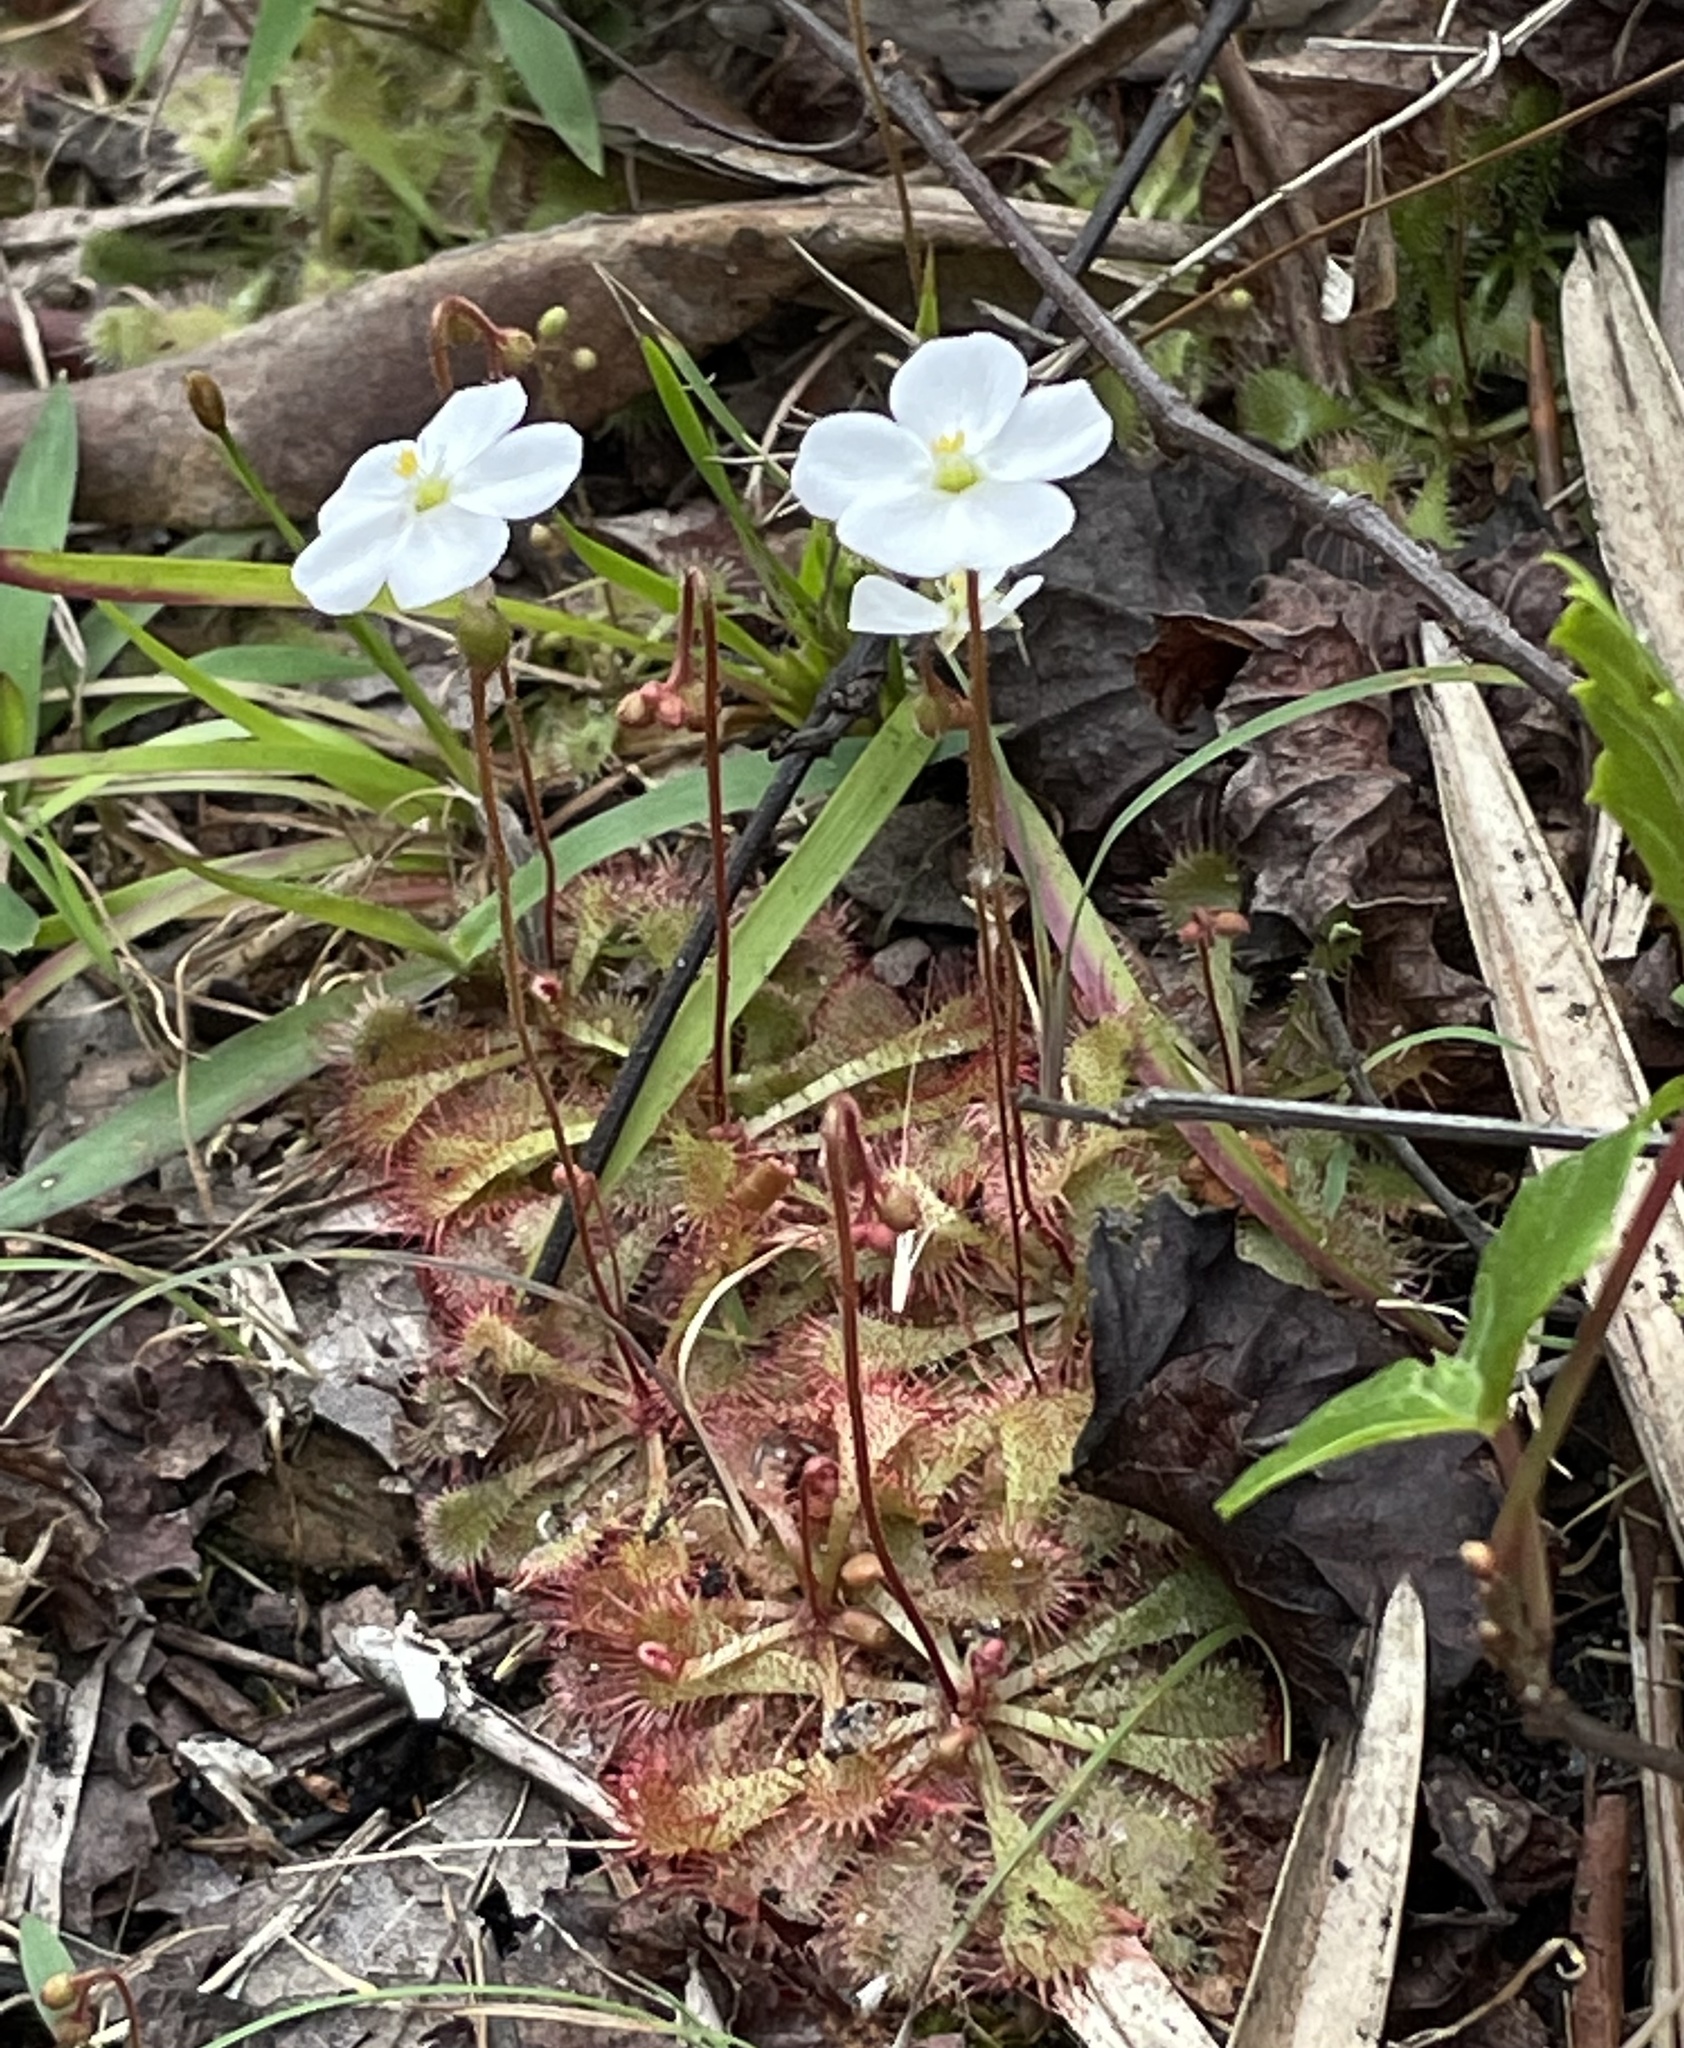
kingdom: Plantae
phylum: Tracheophyta
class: Magnoliopsida
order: Caryophyllales
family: Droseraceae
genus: Drosera
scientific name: Drosera brevifolia
